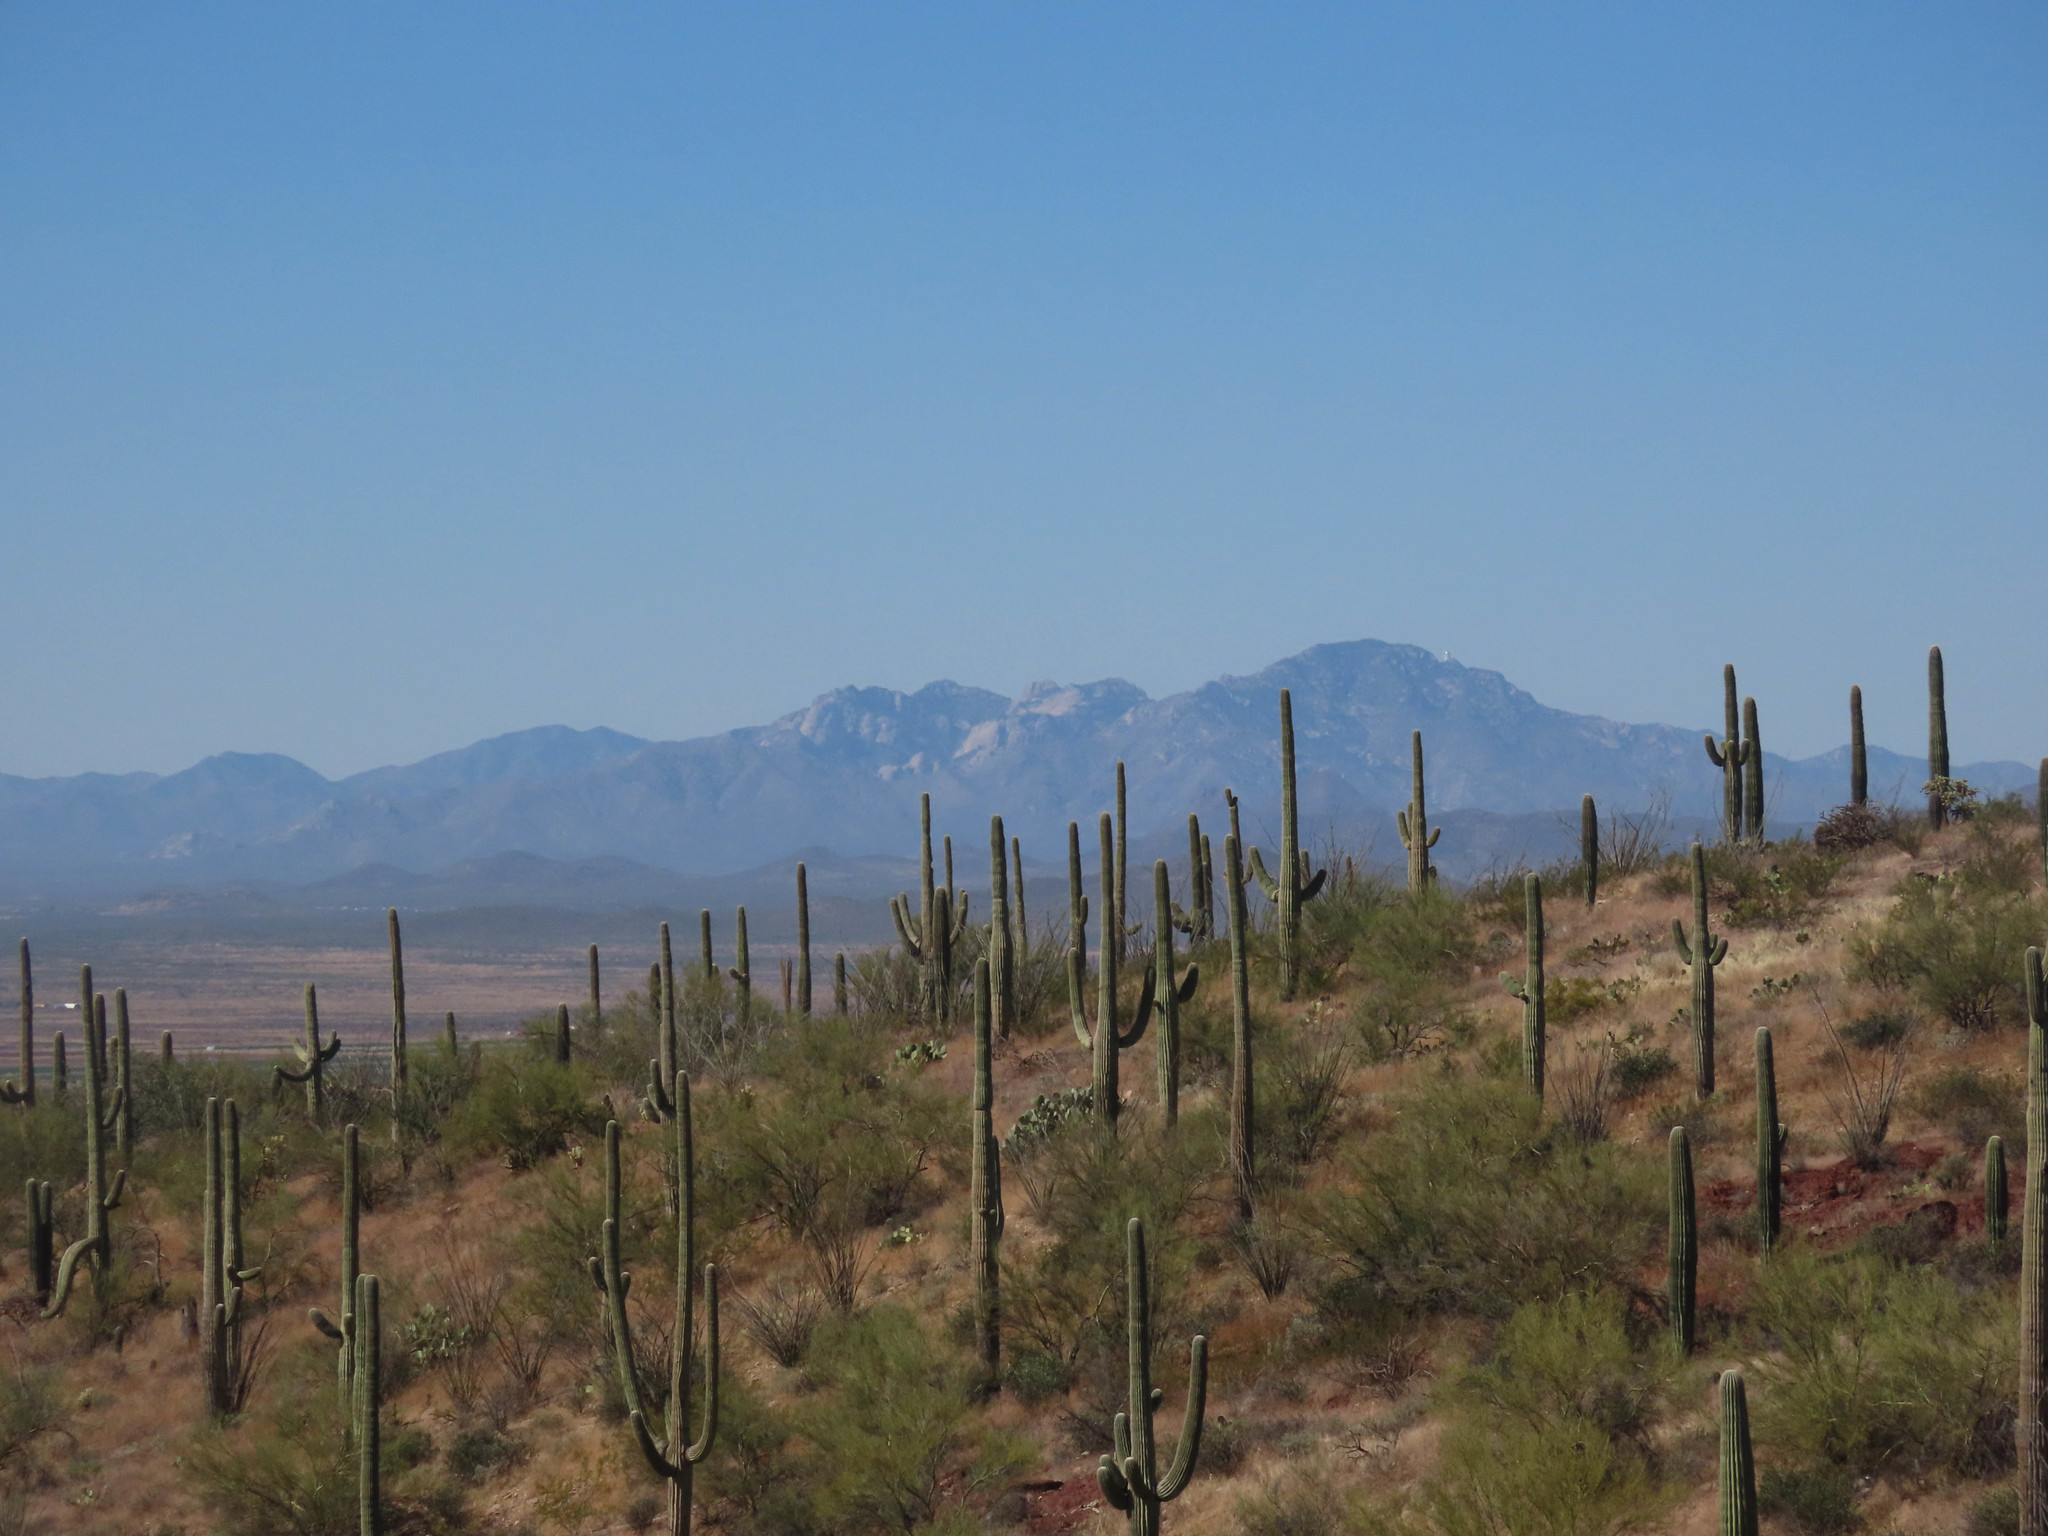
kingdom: Plantae
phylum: Tracheophyta
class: Magnoliopsida
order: Caryophyllales
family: Cactaceae
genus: Carnegiea
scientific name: Carnegiea gigantea
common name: Saguaro
